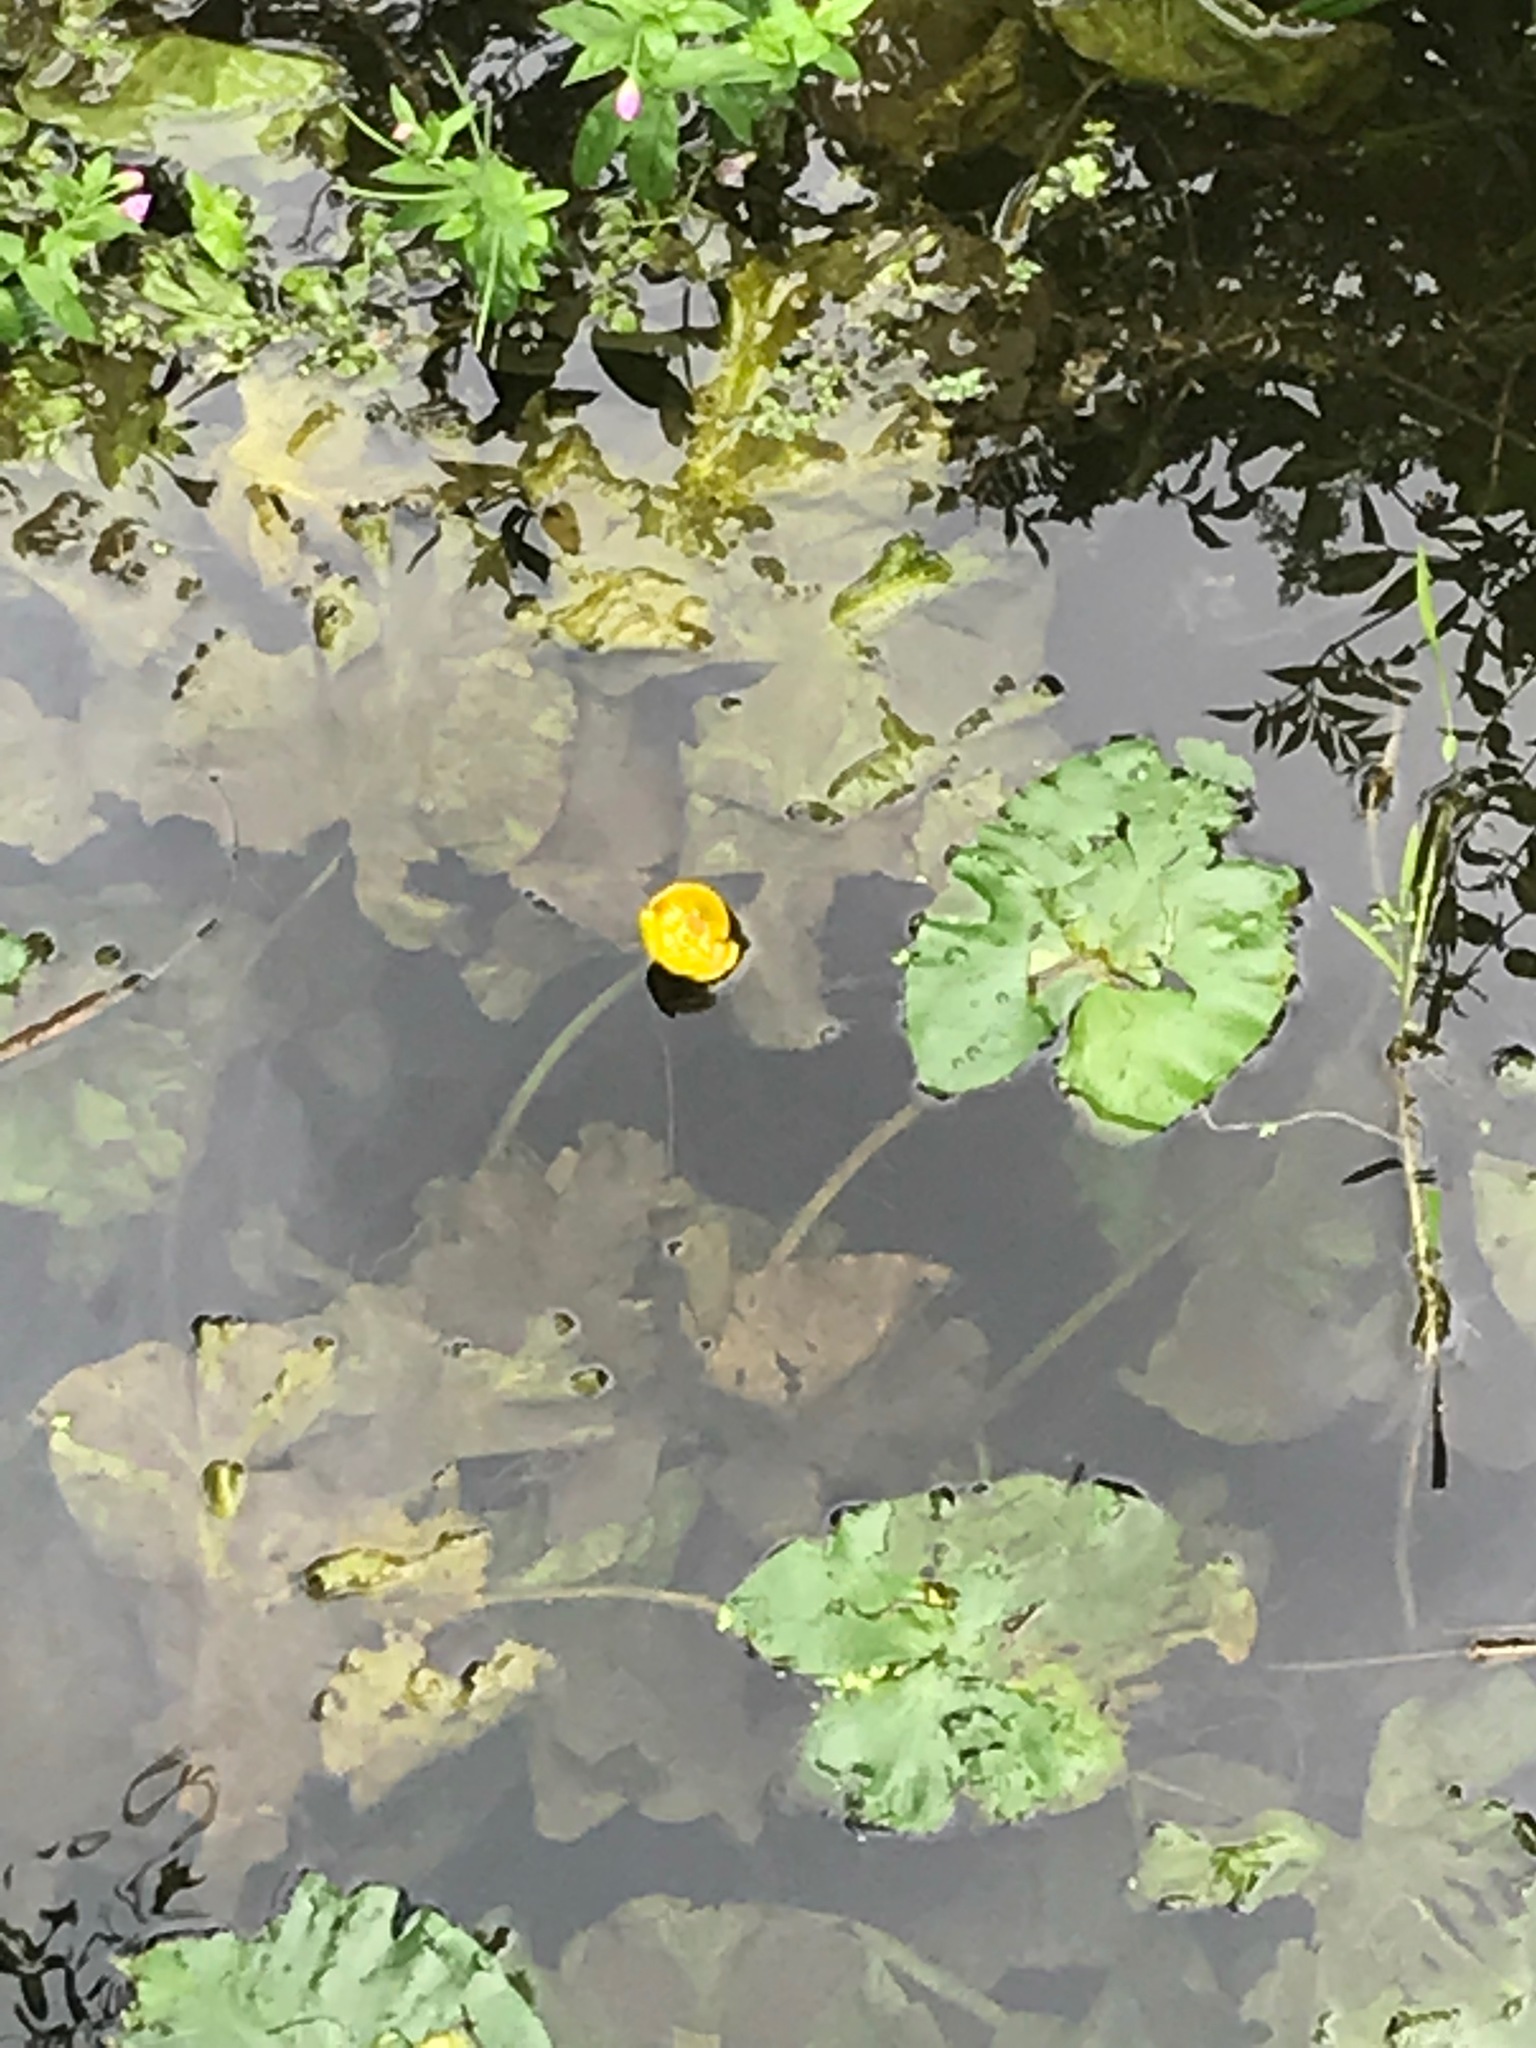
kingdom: Plantae
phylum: Tracheophyta
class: Magnoliopsida
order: Nymphaeales
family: Nymphaeaceae
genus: Nuphar
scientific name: Nuphar lutea
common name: Yellow water-lily
